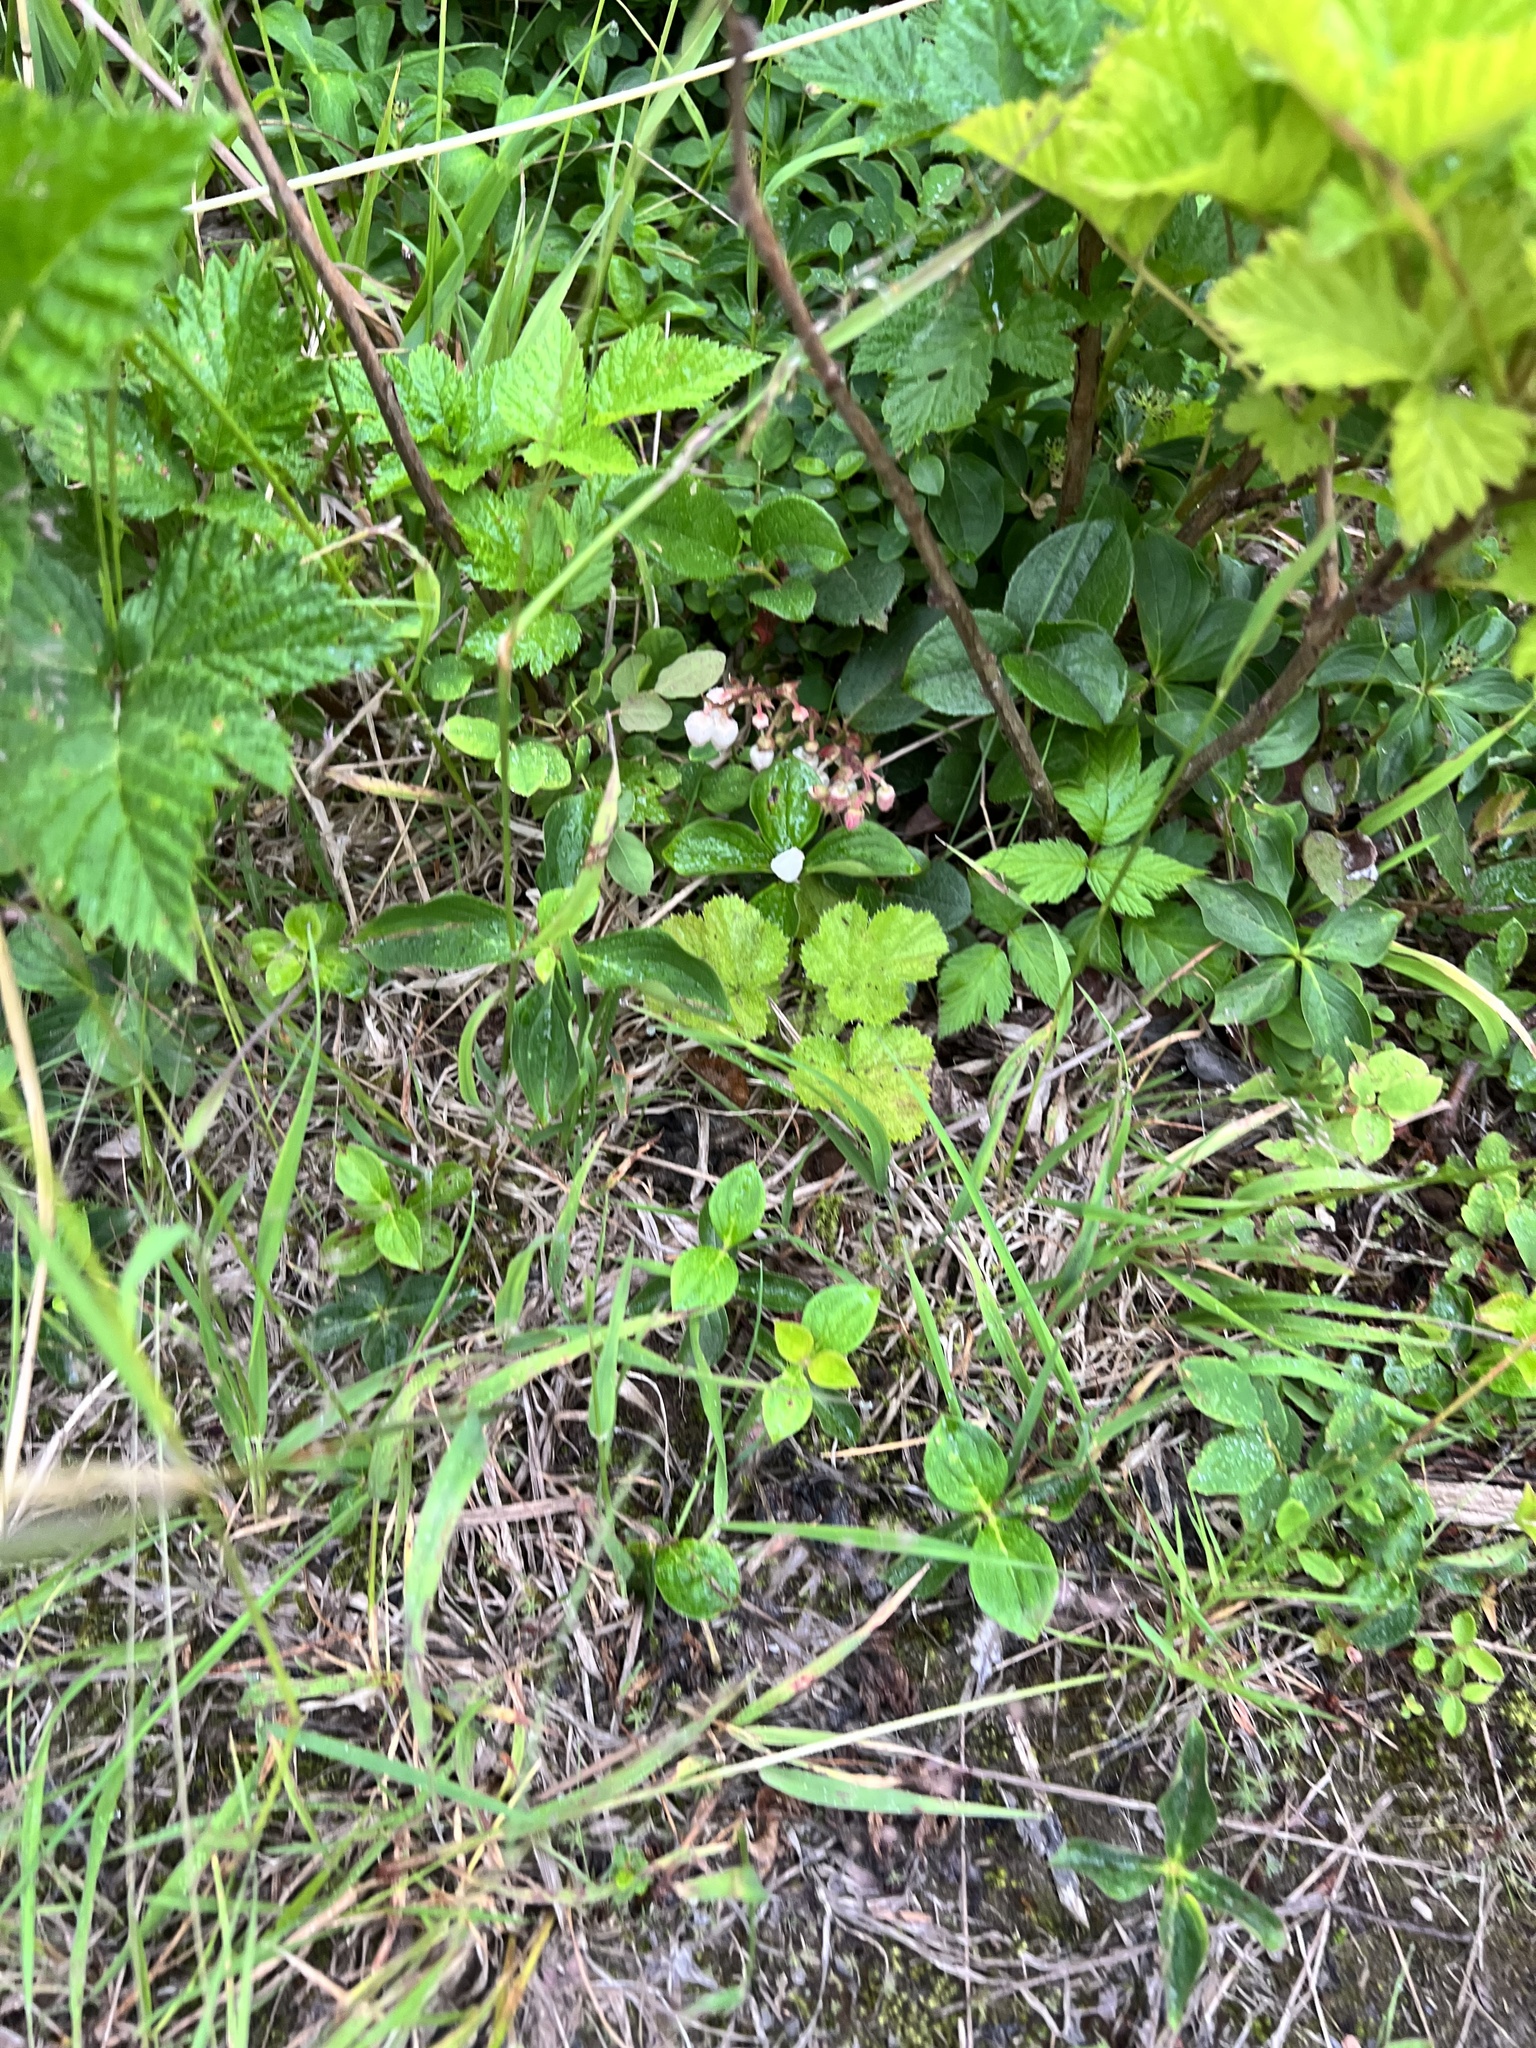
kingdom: Plantae
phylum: Tracheophyta
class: Magnoliopsida
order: Ericales
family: Ericaceae
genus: Gaultheria
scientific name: Gaultheria shallon
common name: Shallon
